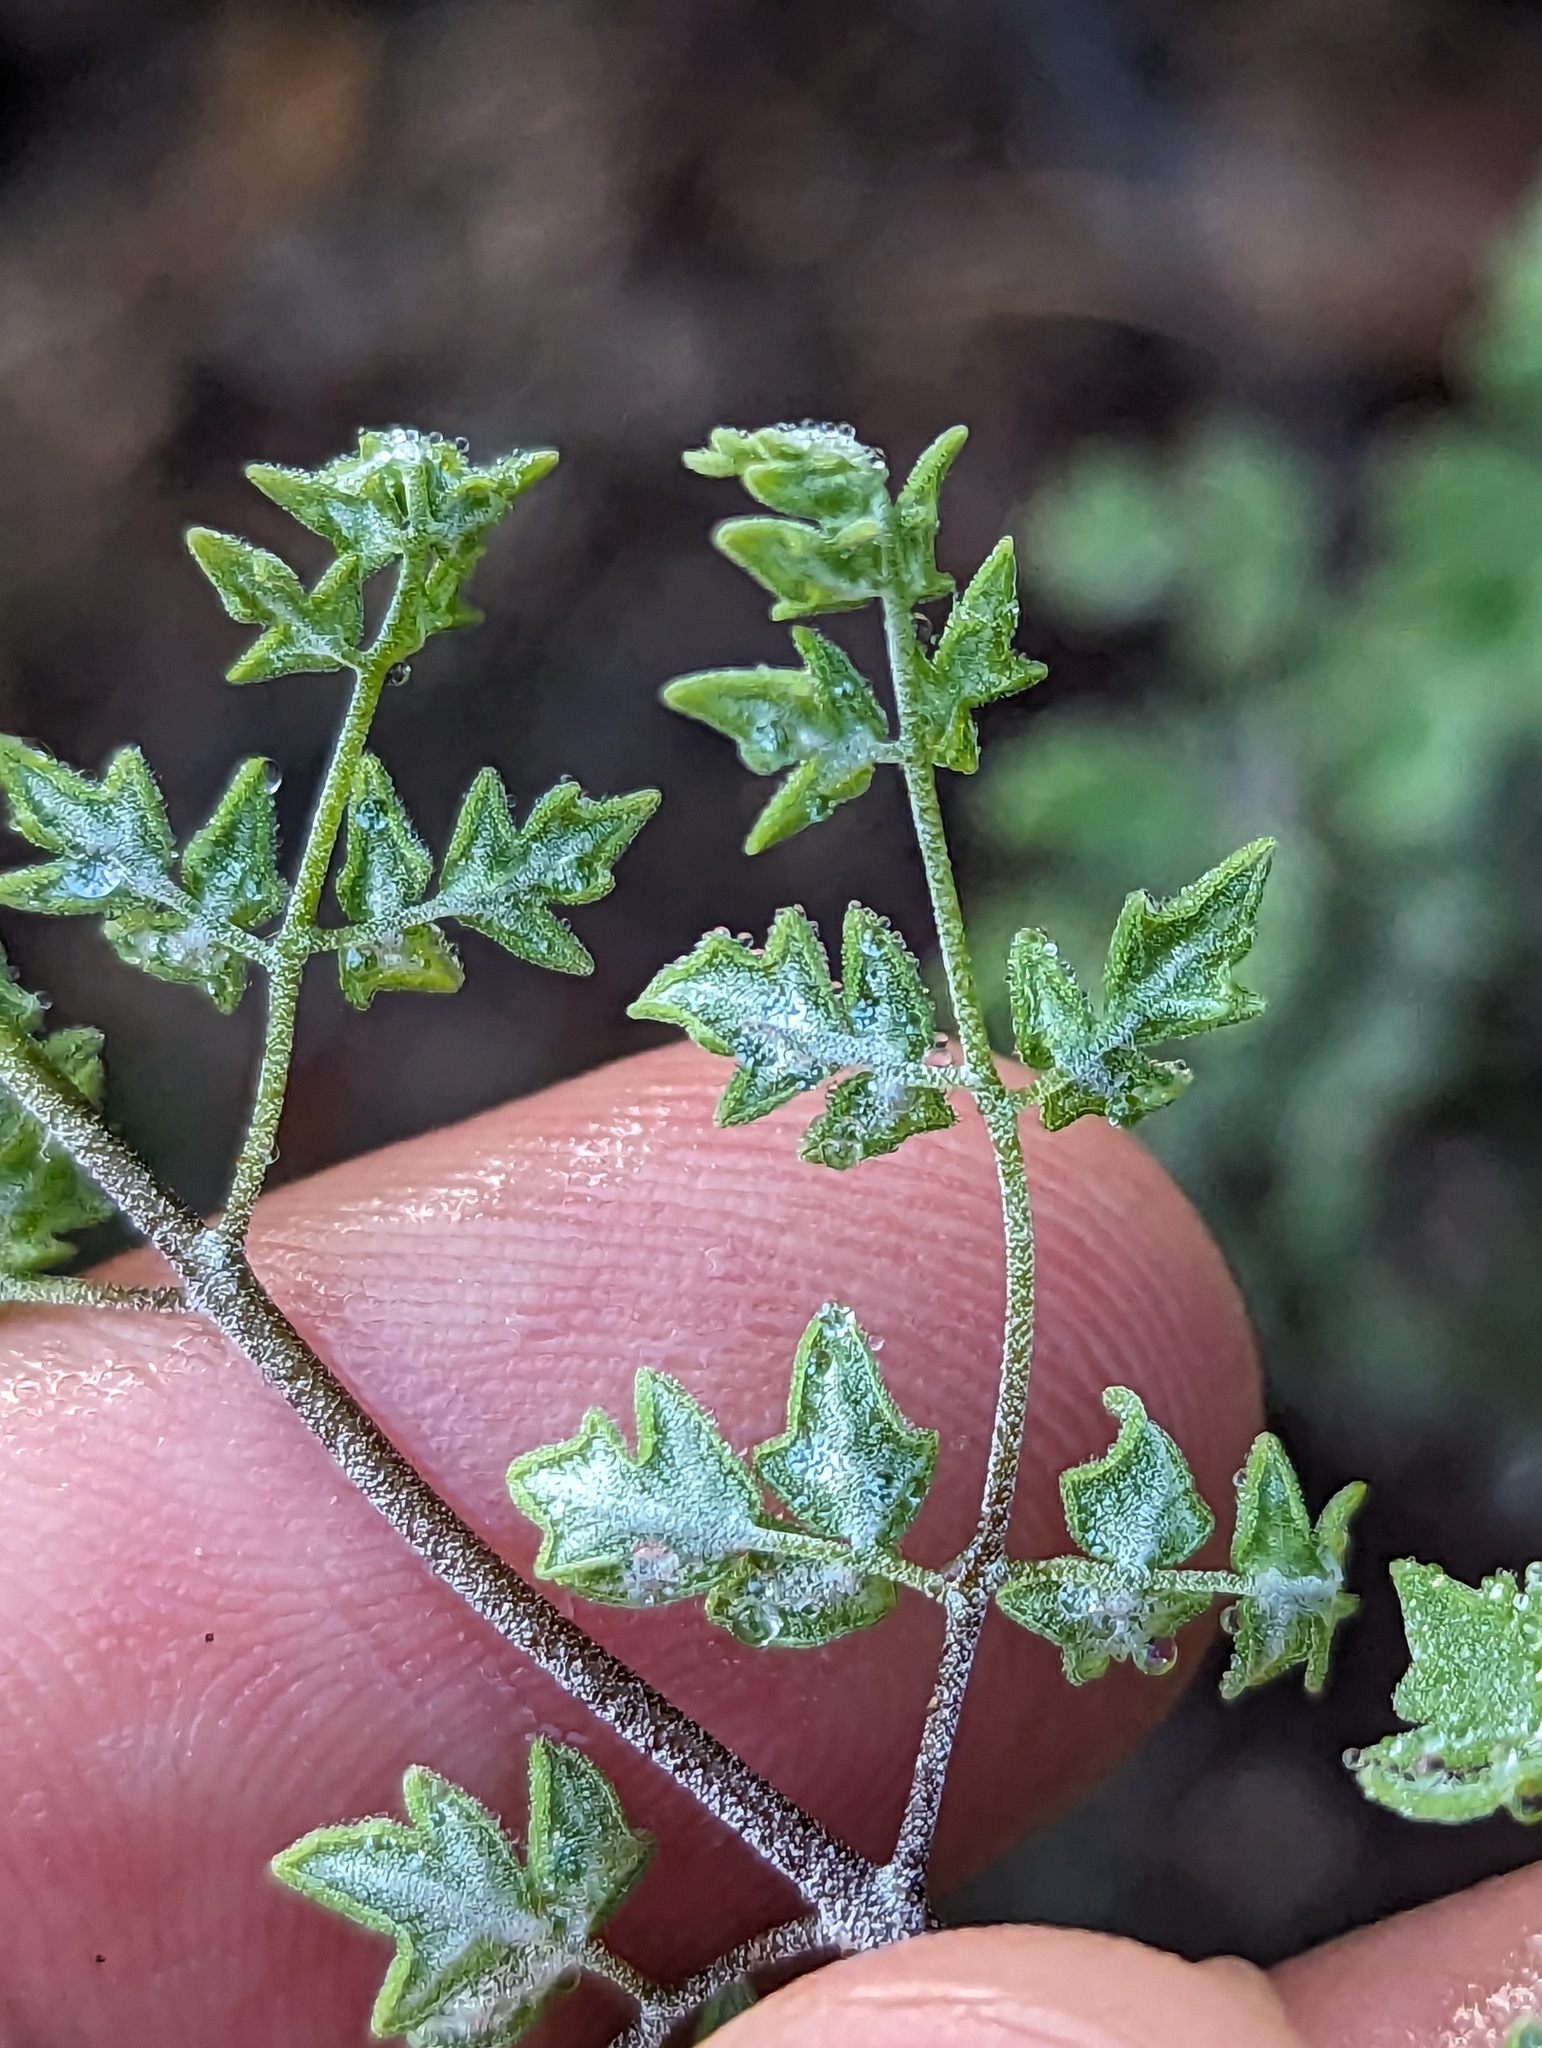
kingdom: Plantae
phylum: Tracheophyta
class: Polypodiopsida
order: Polypodiales
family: Pteridaceae
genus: Argyrochosma
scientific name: Argyrochosma peninsularis
